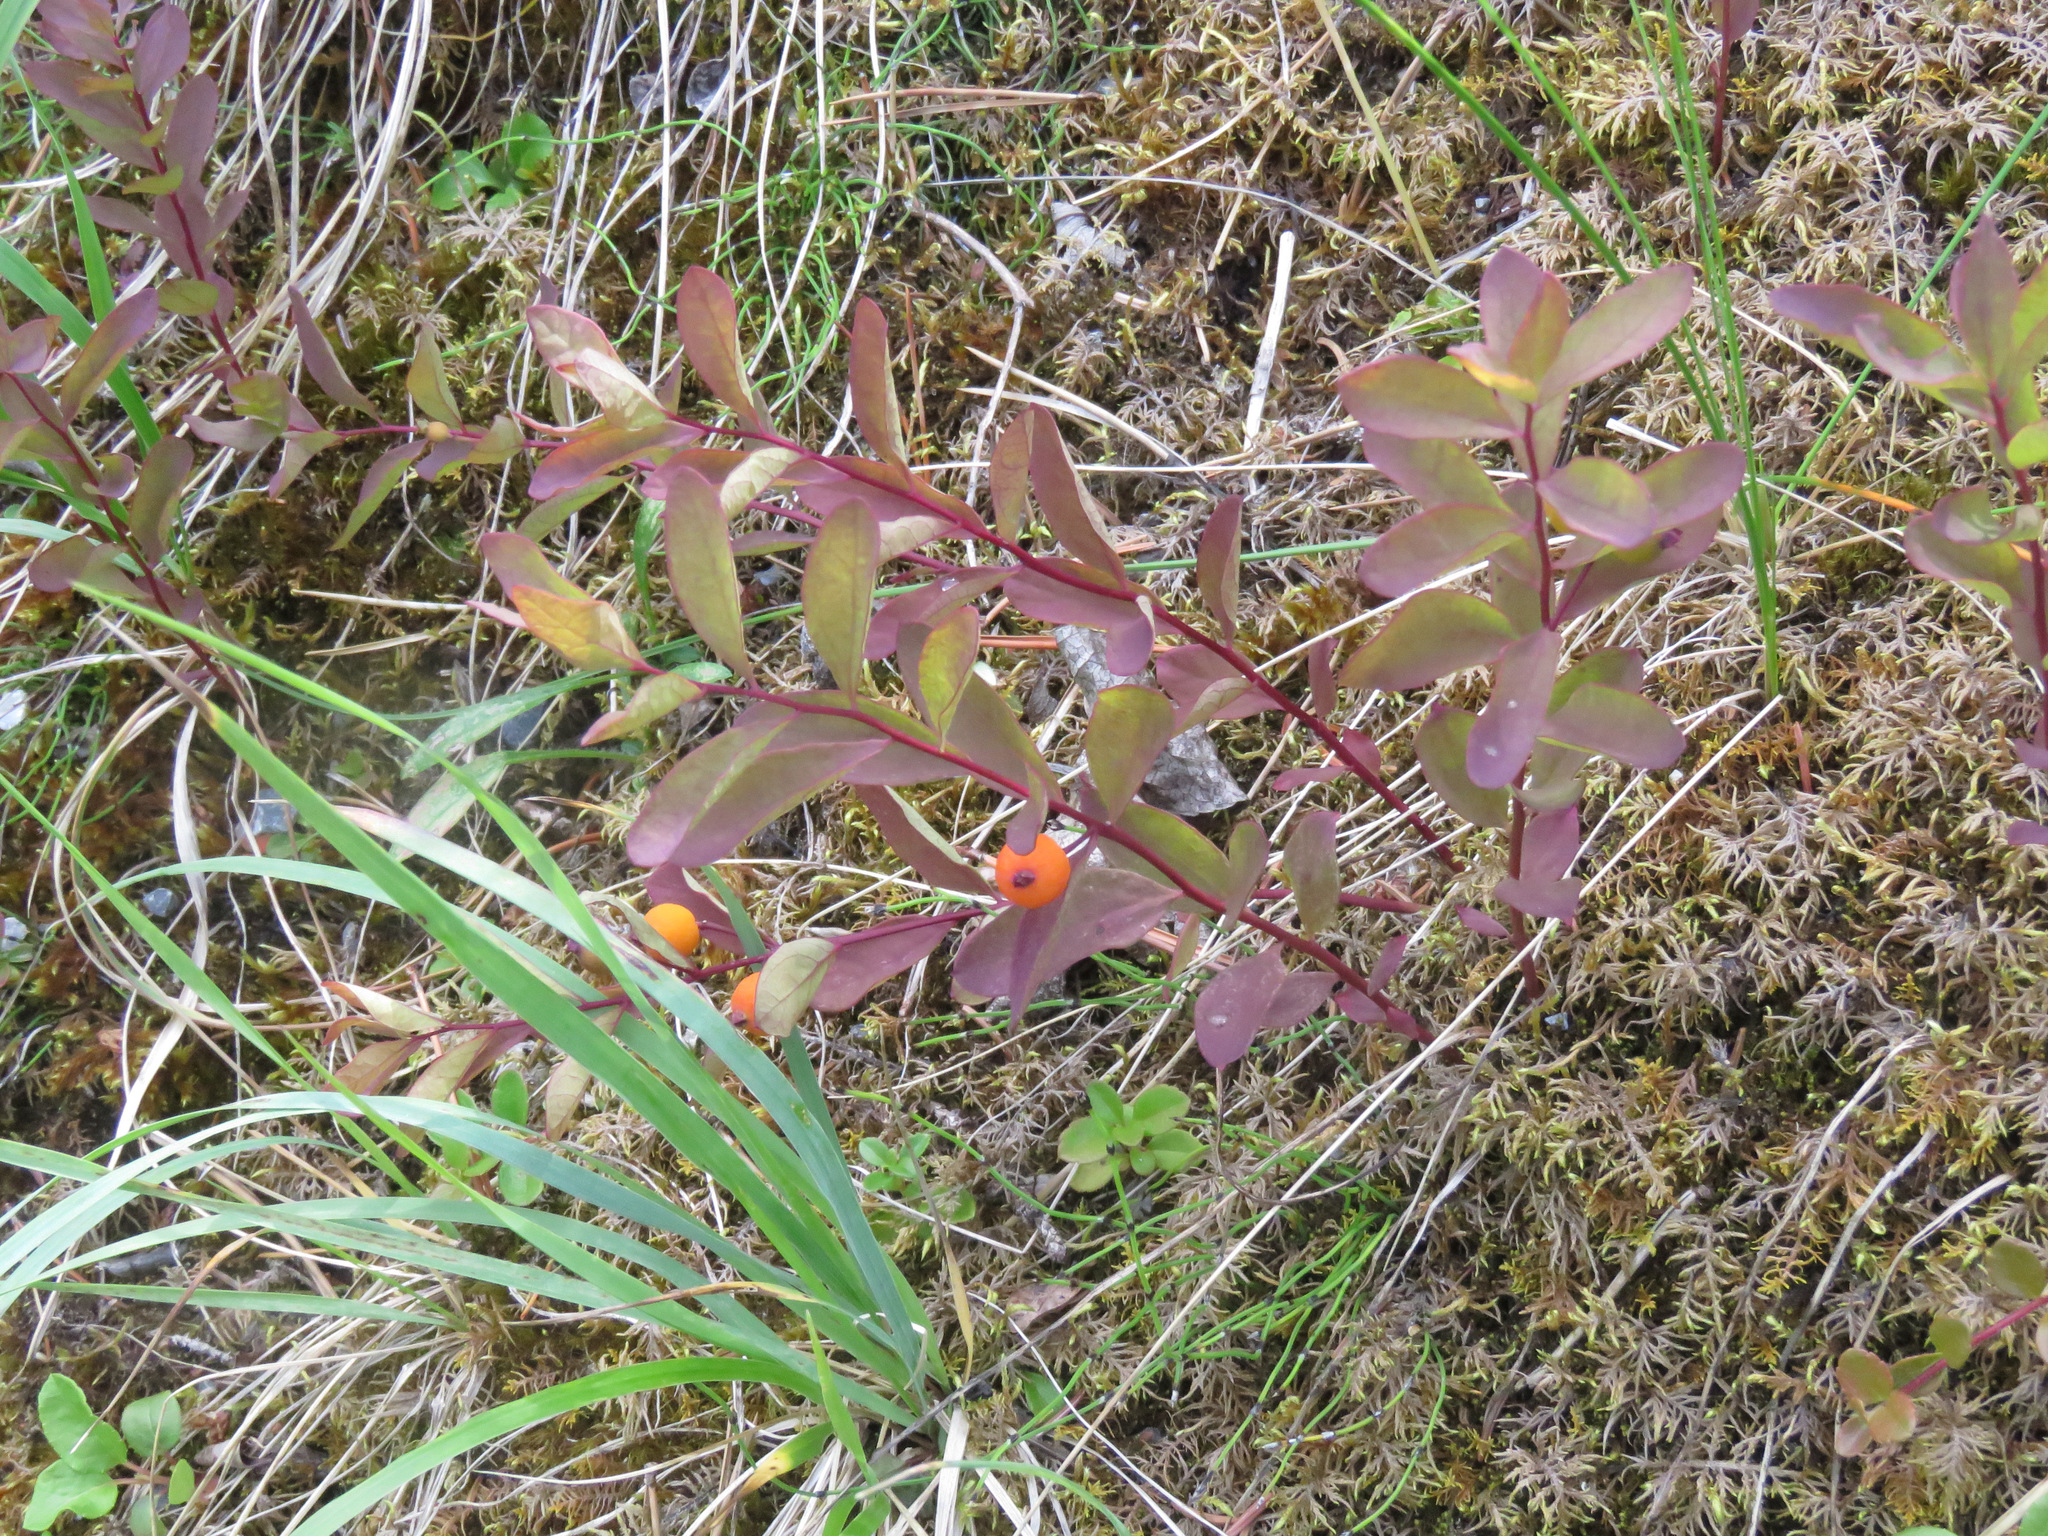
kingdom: Plantae
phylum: Tracheophyta
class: Magnoliopsida
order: Santalales
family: Comandraceae
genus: Geocaulon
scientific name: Geocaulon lividum
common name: Earthberry
